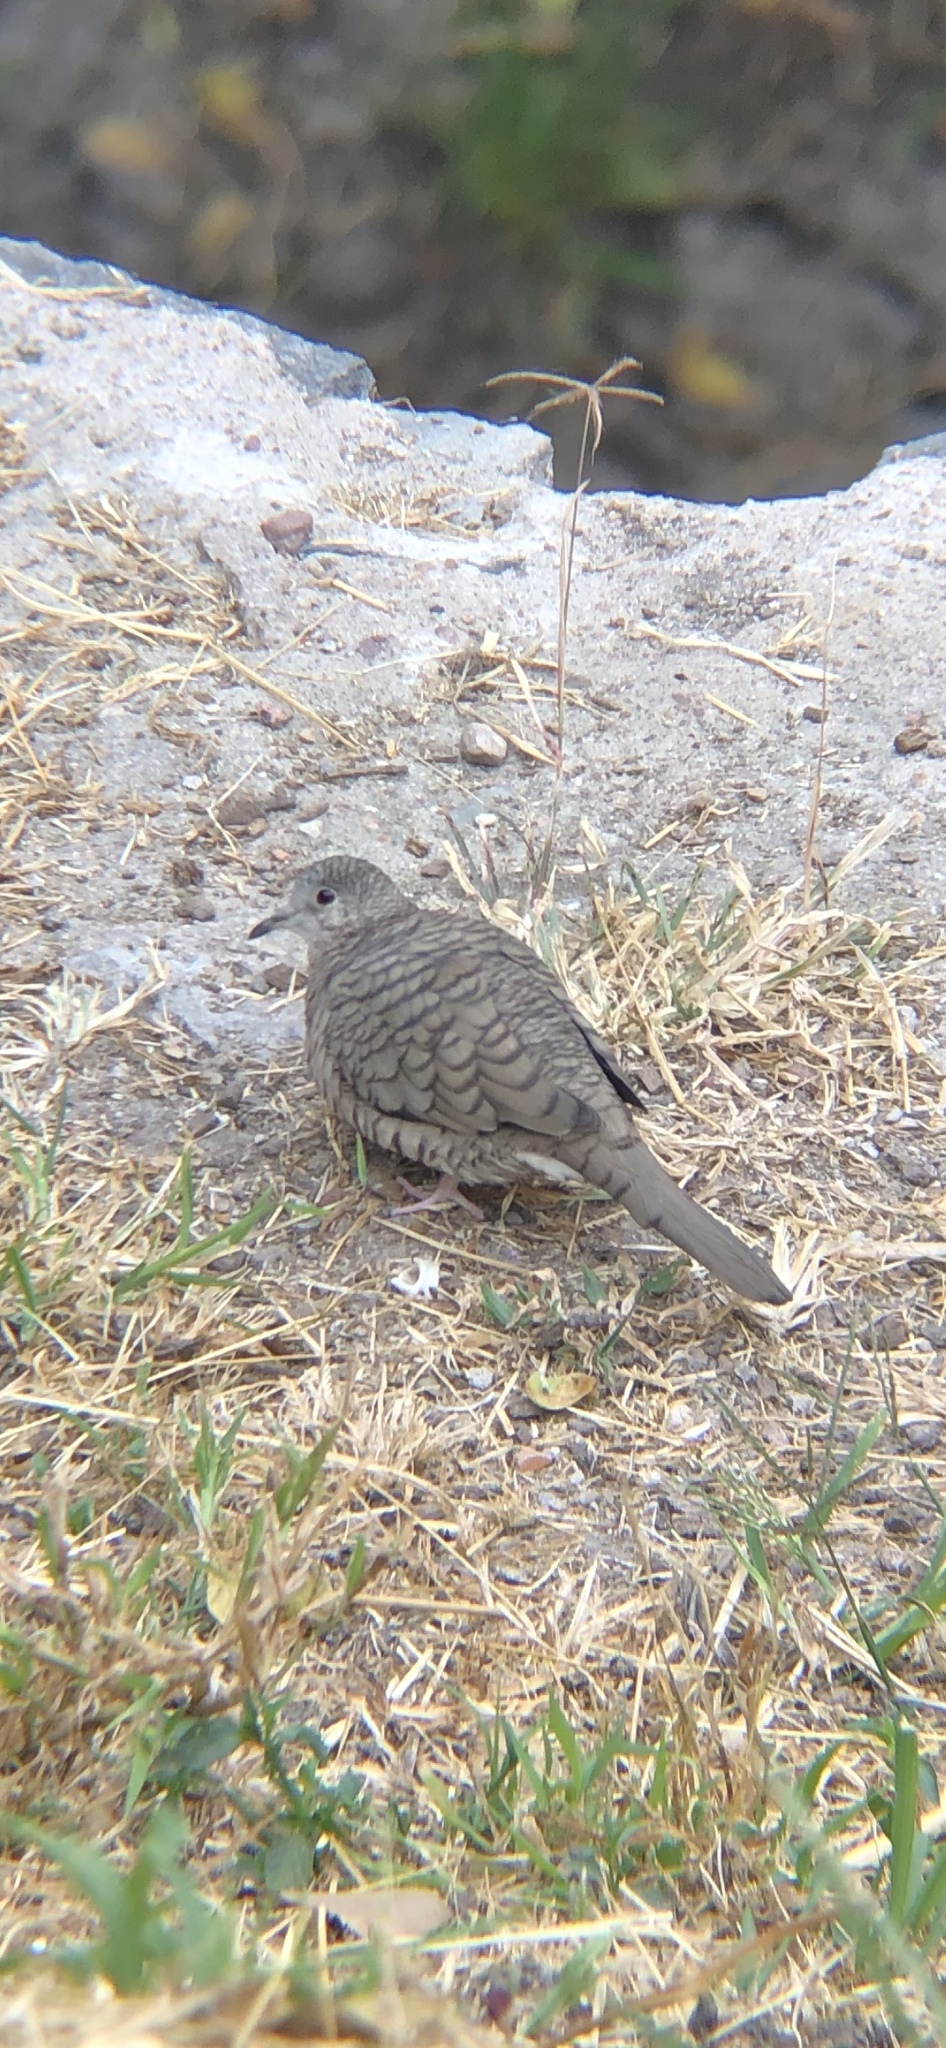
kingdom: Animalia
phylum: Chordata
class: Aves
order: Columbiformes
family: Columbidae
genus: Columbina
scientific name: Columbina inca
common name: Inca dove
